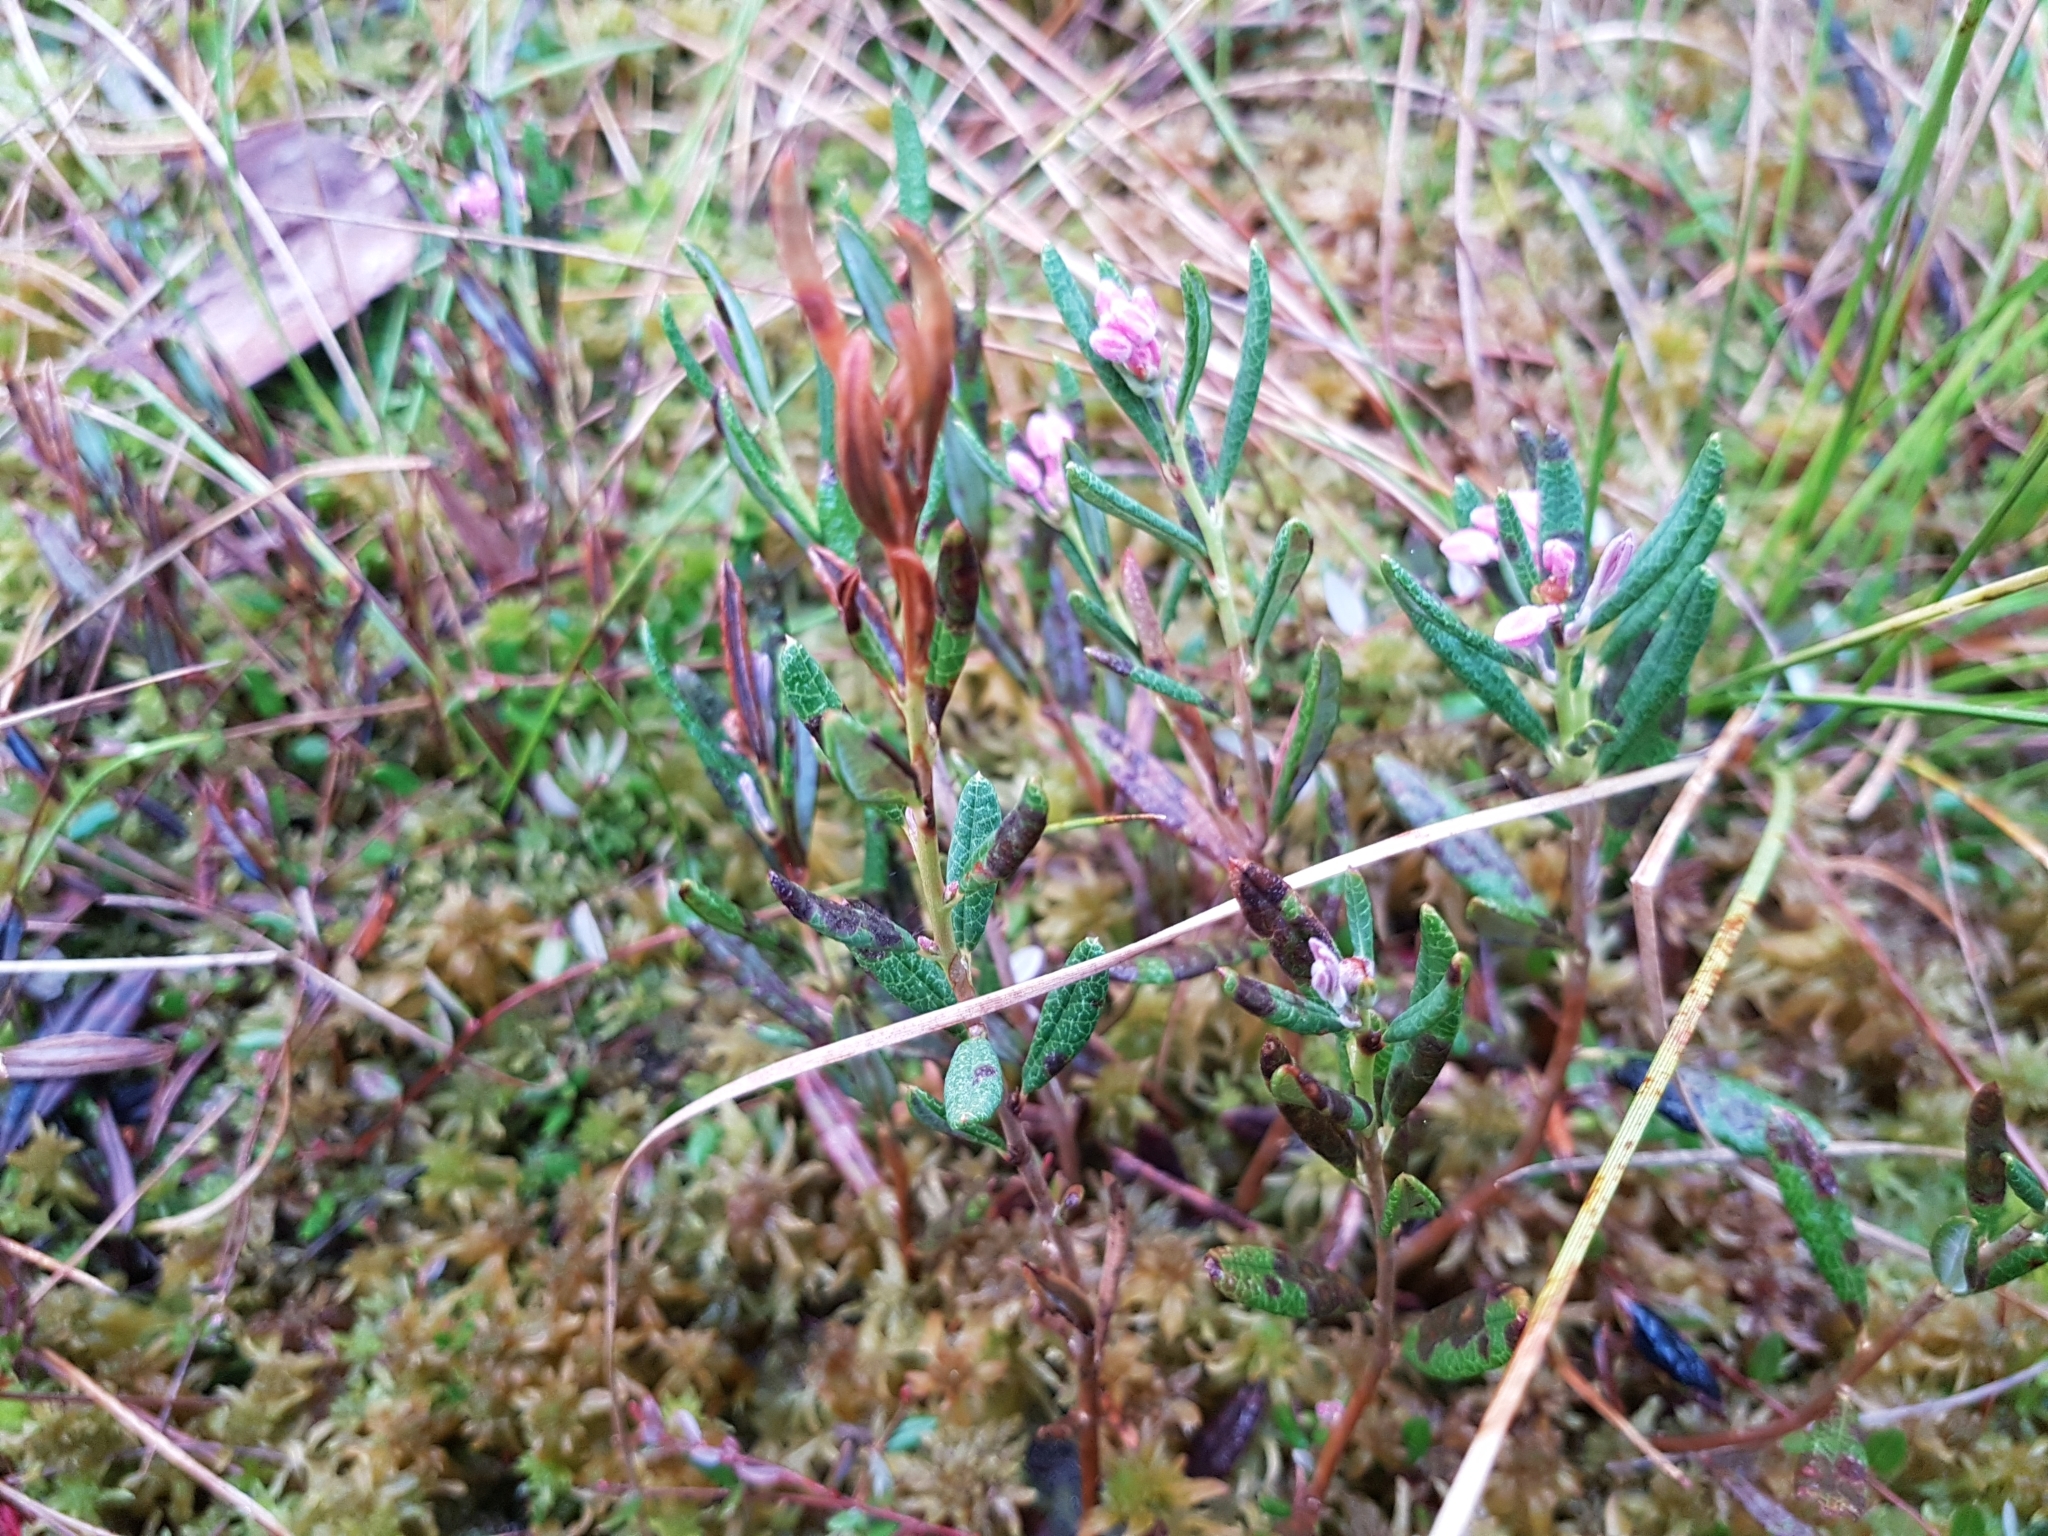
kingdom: Plantae
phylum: Tracheophyta
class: Magnoliopsida
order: Ericales
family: Ericaceae
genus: Andromeda
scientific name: Andromeda polifolia
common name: Bog-rosemary
